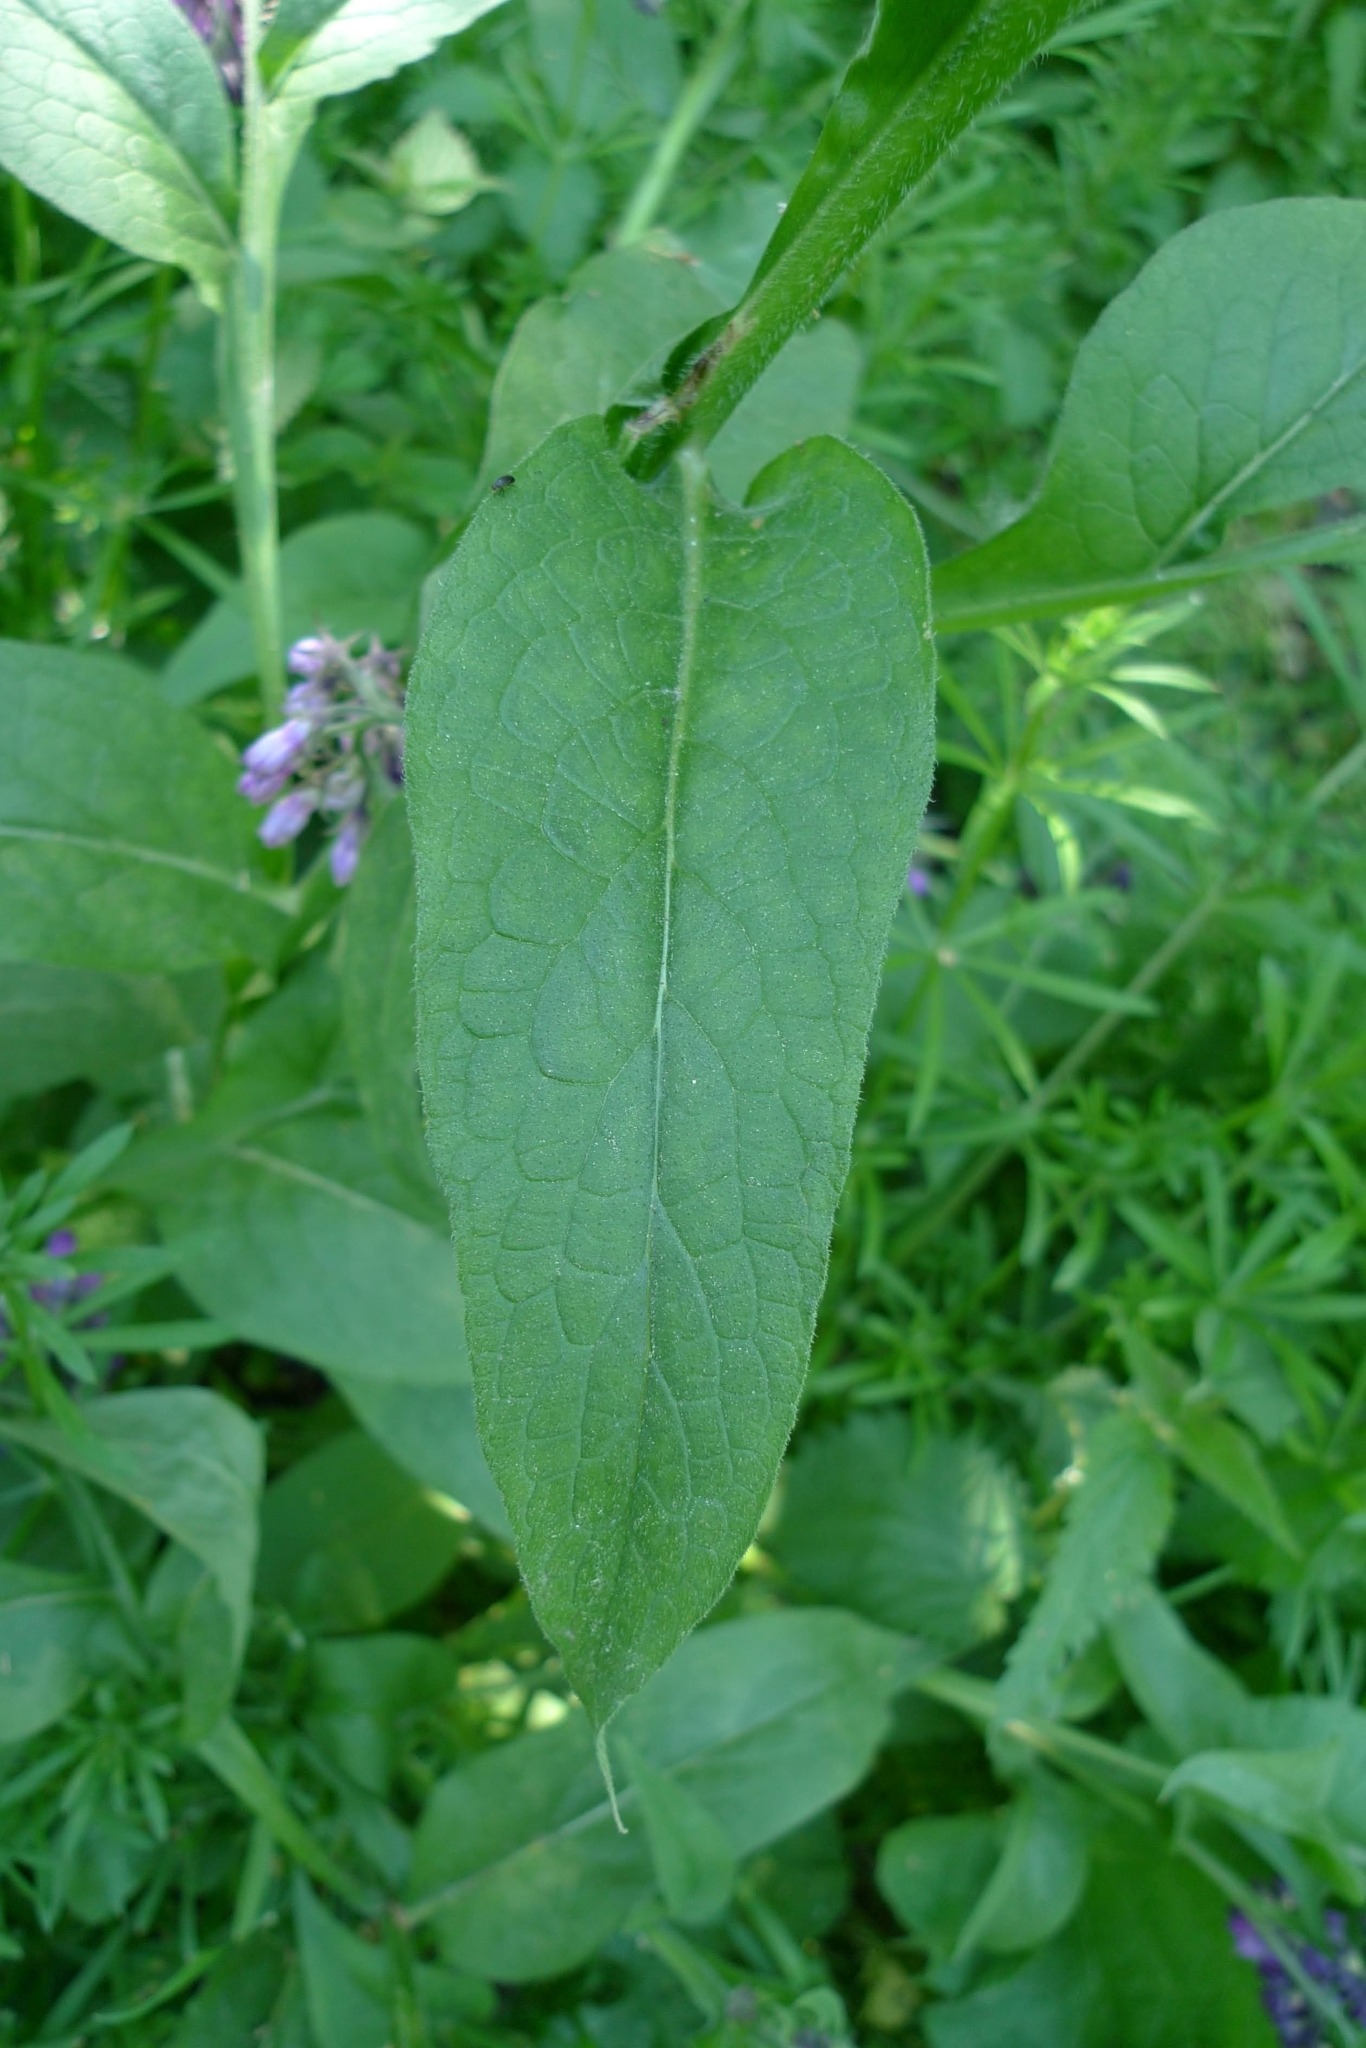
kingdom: Plantae
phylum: Tracheophyta
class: Magnoliopsida
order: Boraginales
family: Boraginaceae
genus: Symphytum
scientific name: Symphytum officinale
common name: Common comfrey
